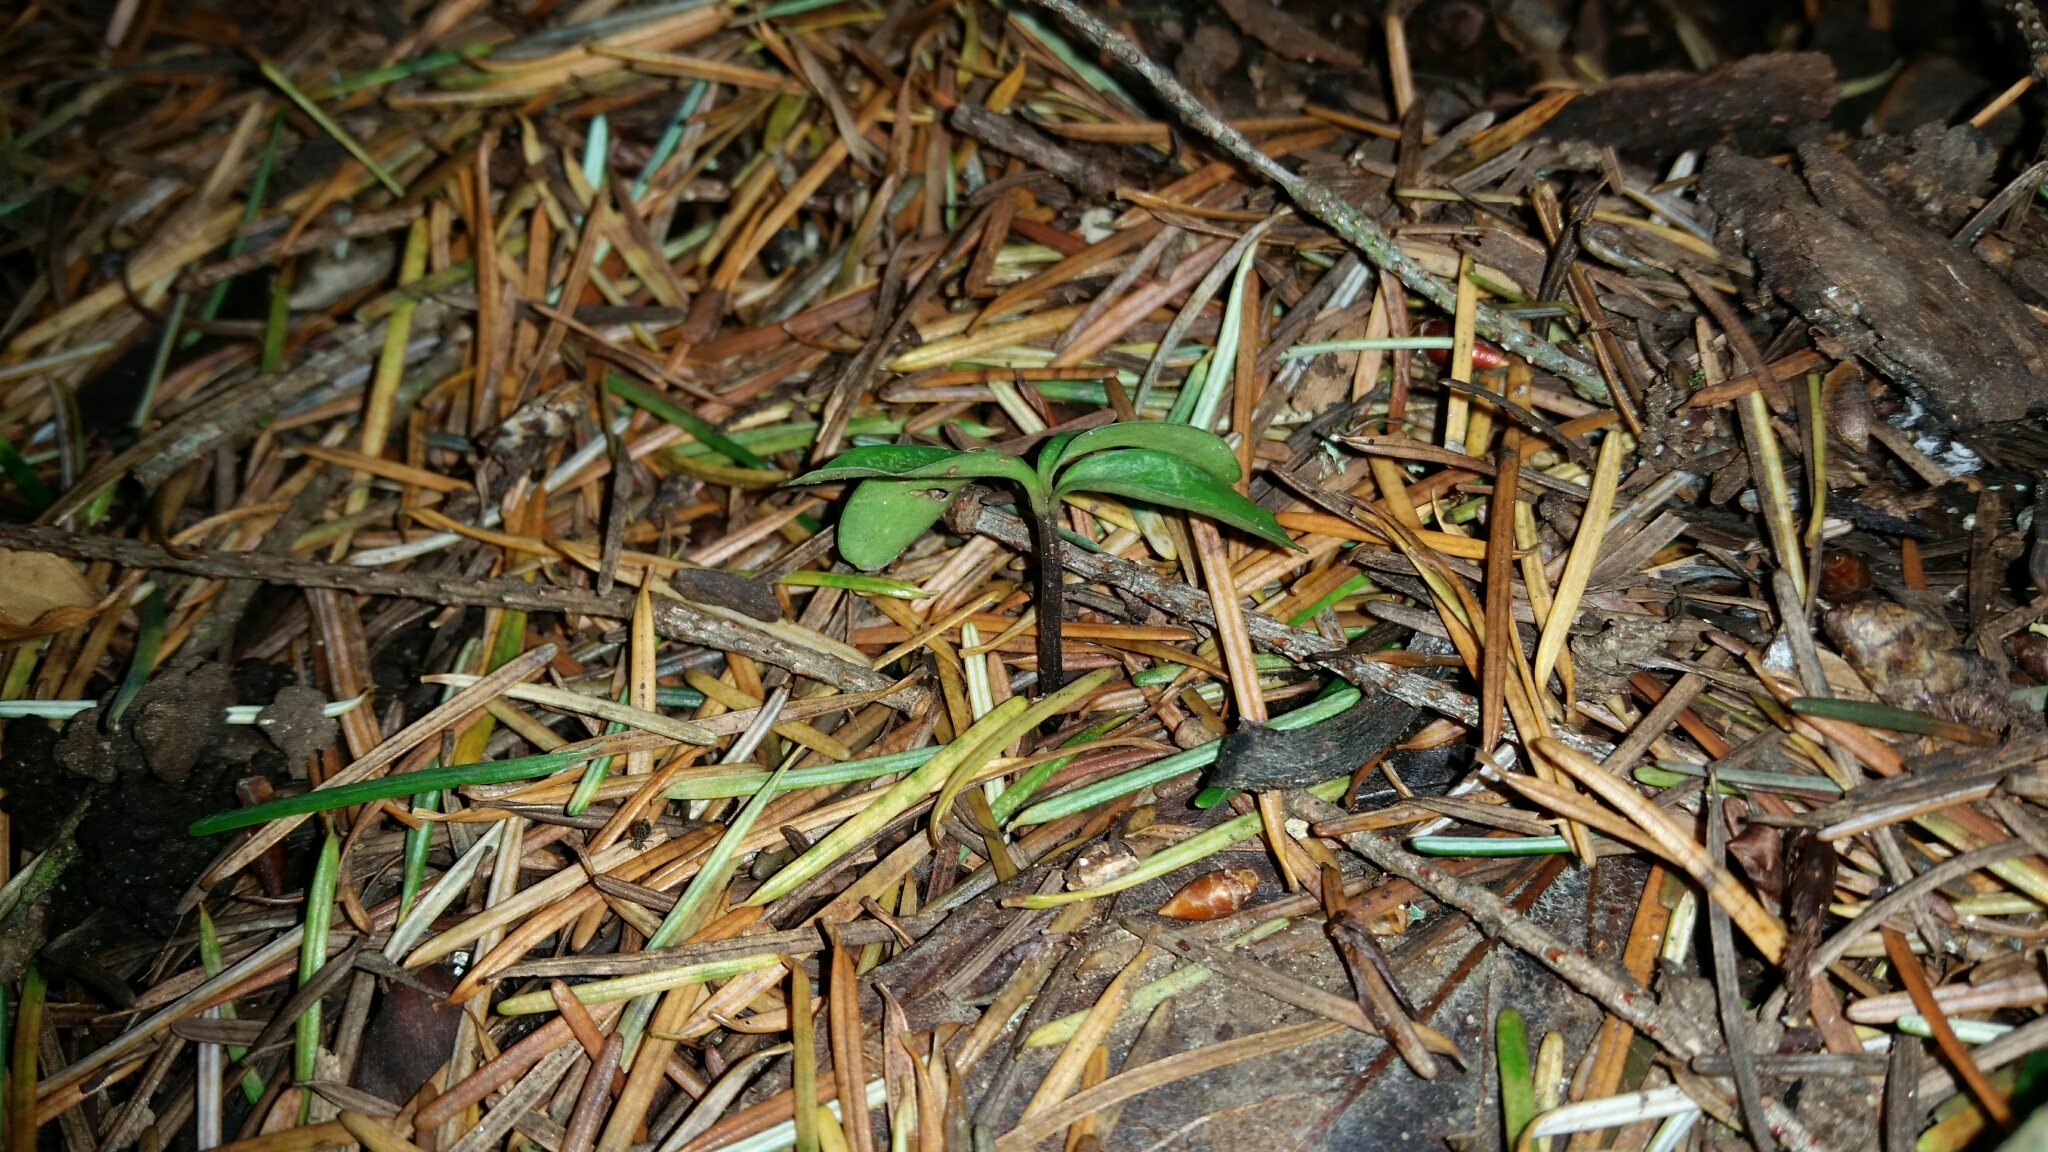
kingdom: Plantae
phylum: Tracheophyta
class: Magnoliopsida
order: Aquifoliales
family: Aquifoliaceae
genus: Ilex
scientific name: Ilex aquifolium
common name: English holly
